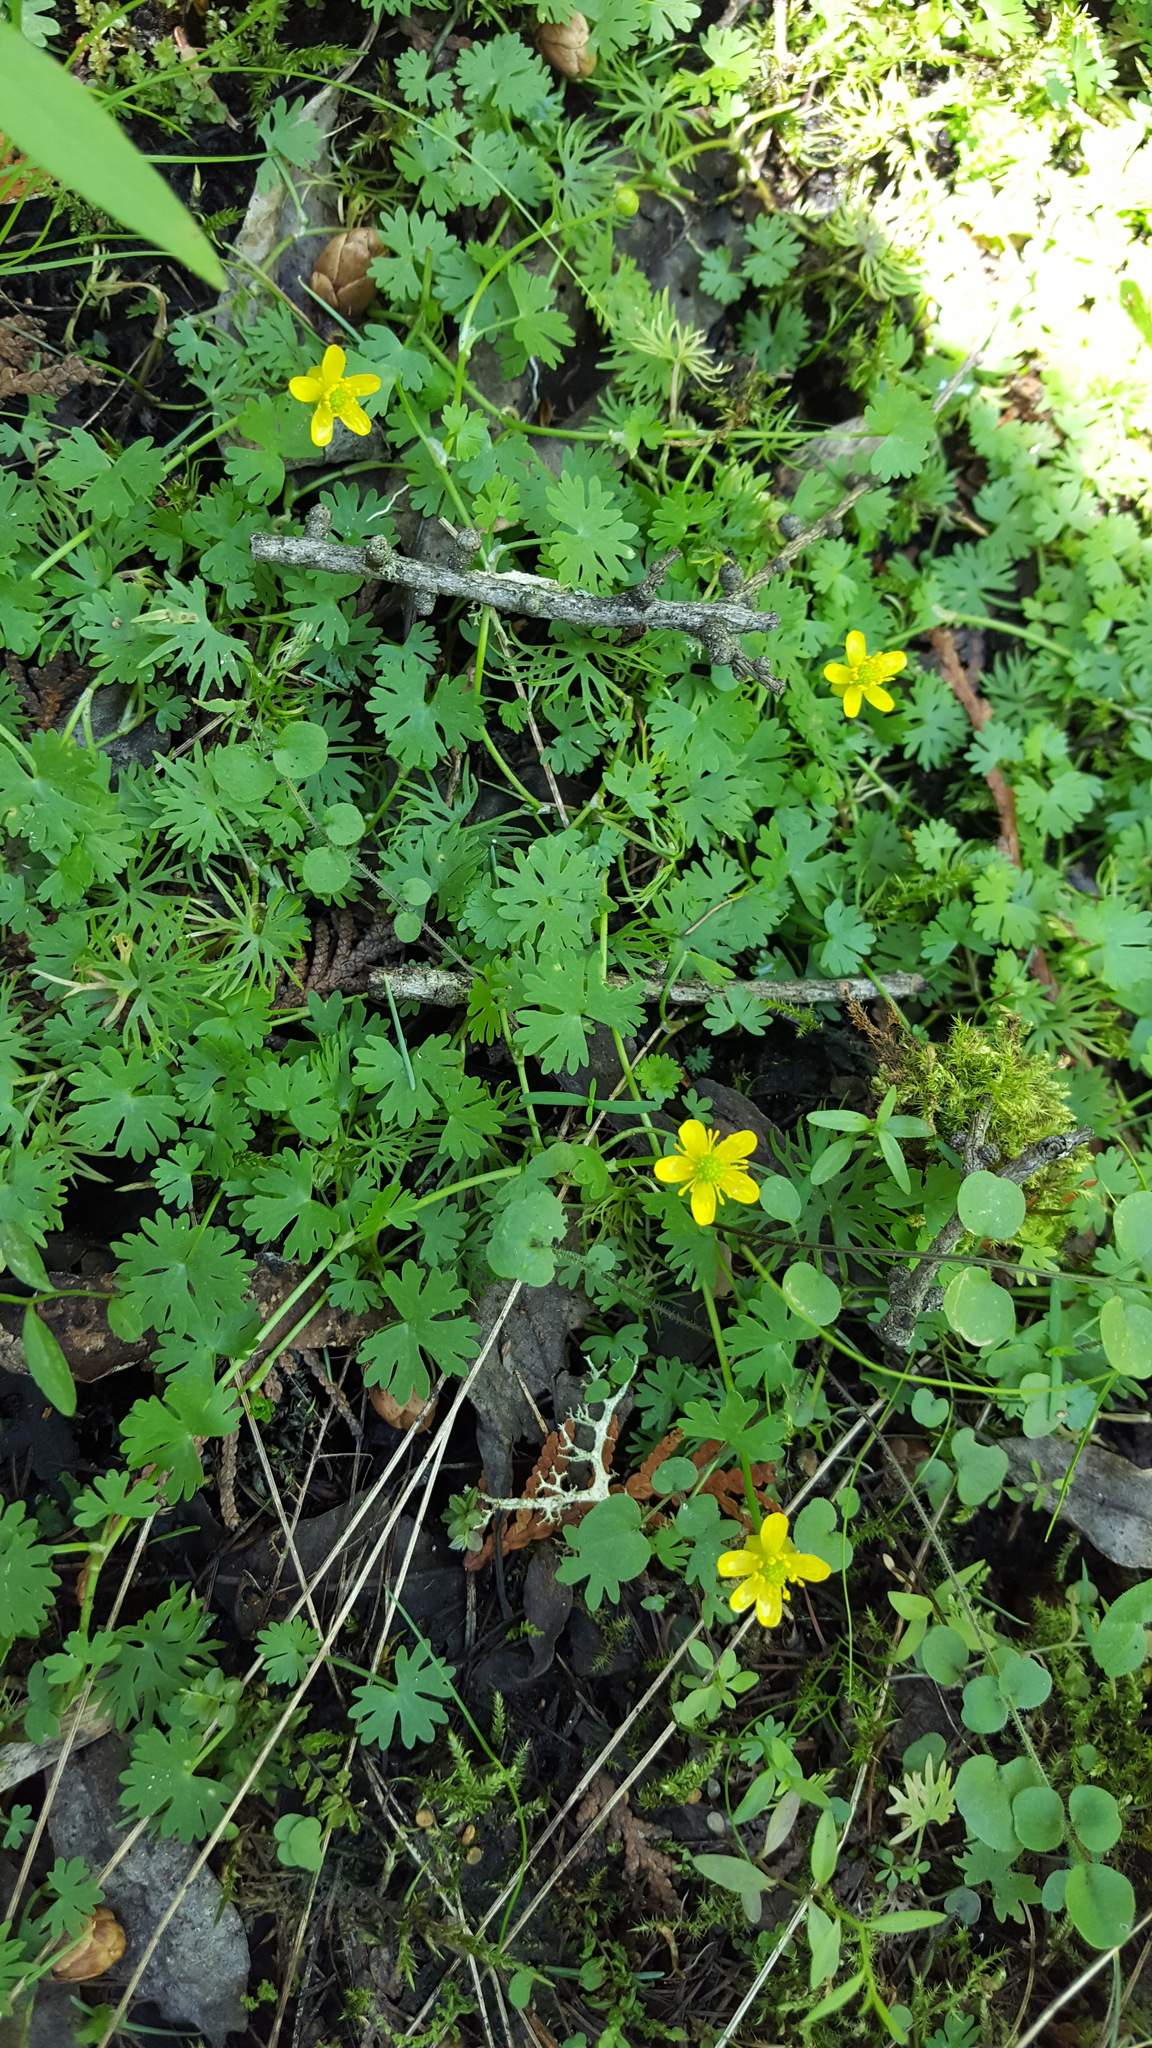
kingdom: Plantae
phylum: Tracheophyta
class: Magnoliopsida
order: Ranunculales
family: Ranunculaceae
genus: Ranunculus
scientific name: Ranunculus gmelinii
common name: Gmelin's buttercup
